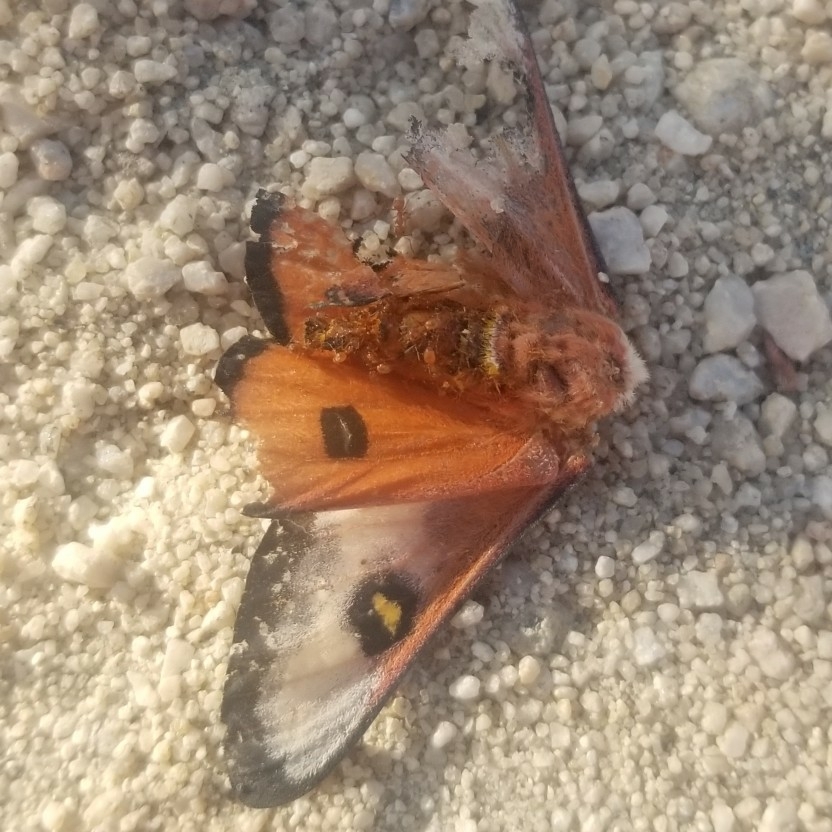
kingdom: Animalia
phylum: Arthropoda
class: Insecta
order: Lepidoptera
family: Saturniidae
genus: Hemileuca
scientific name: Hemileuca electra
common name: Electra buckmoth
